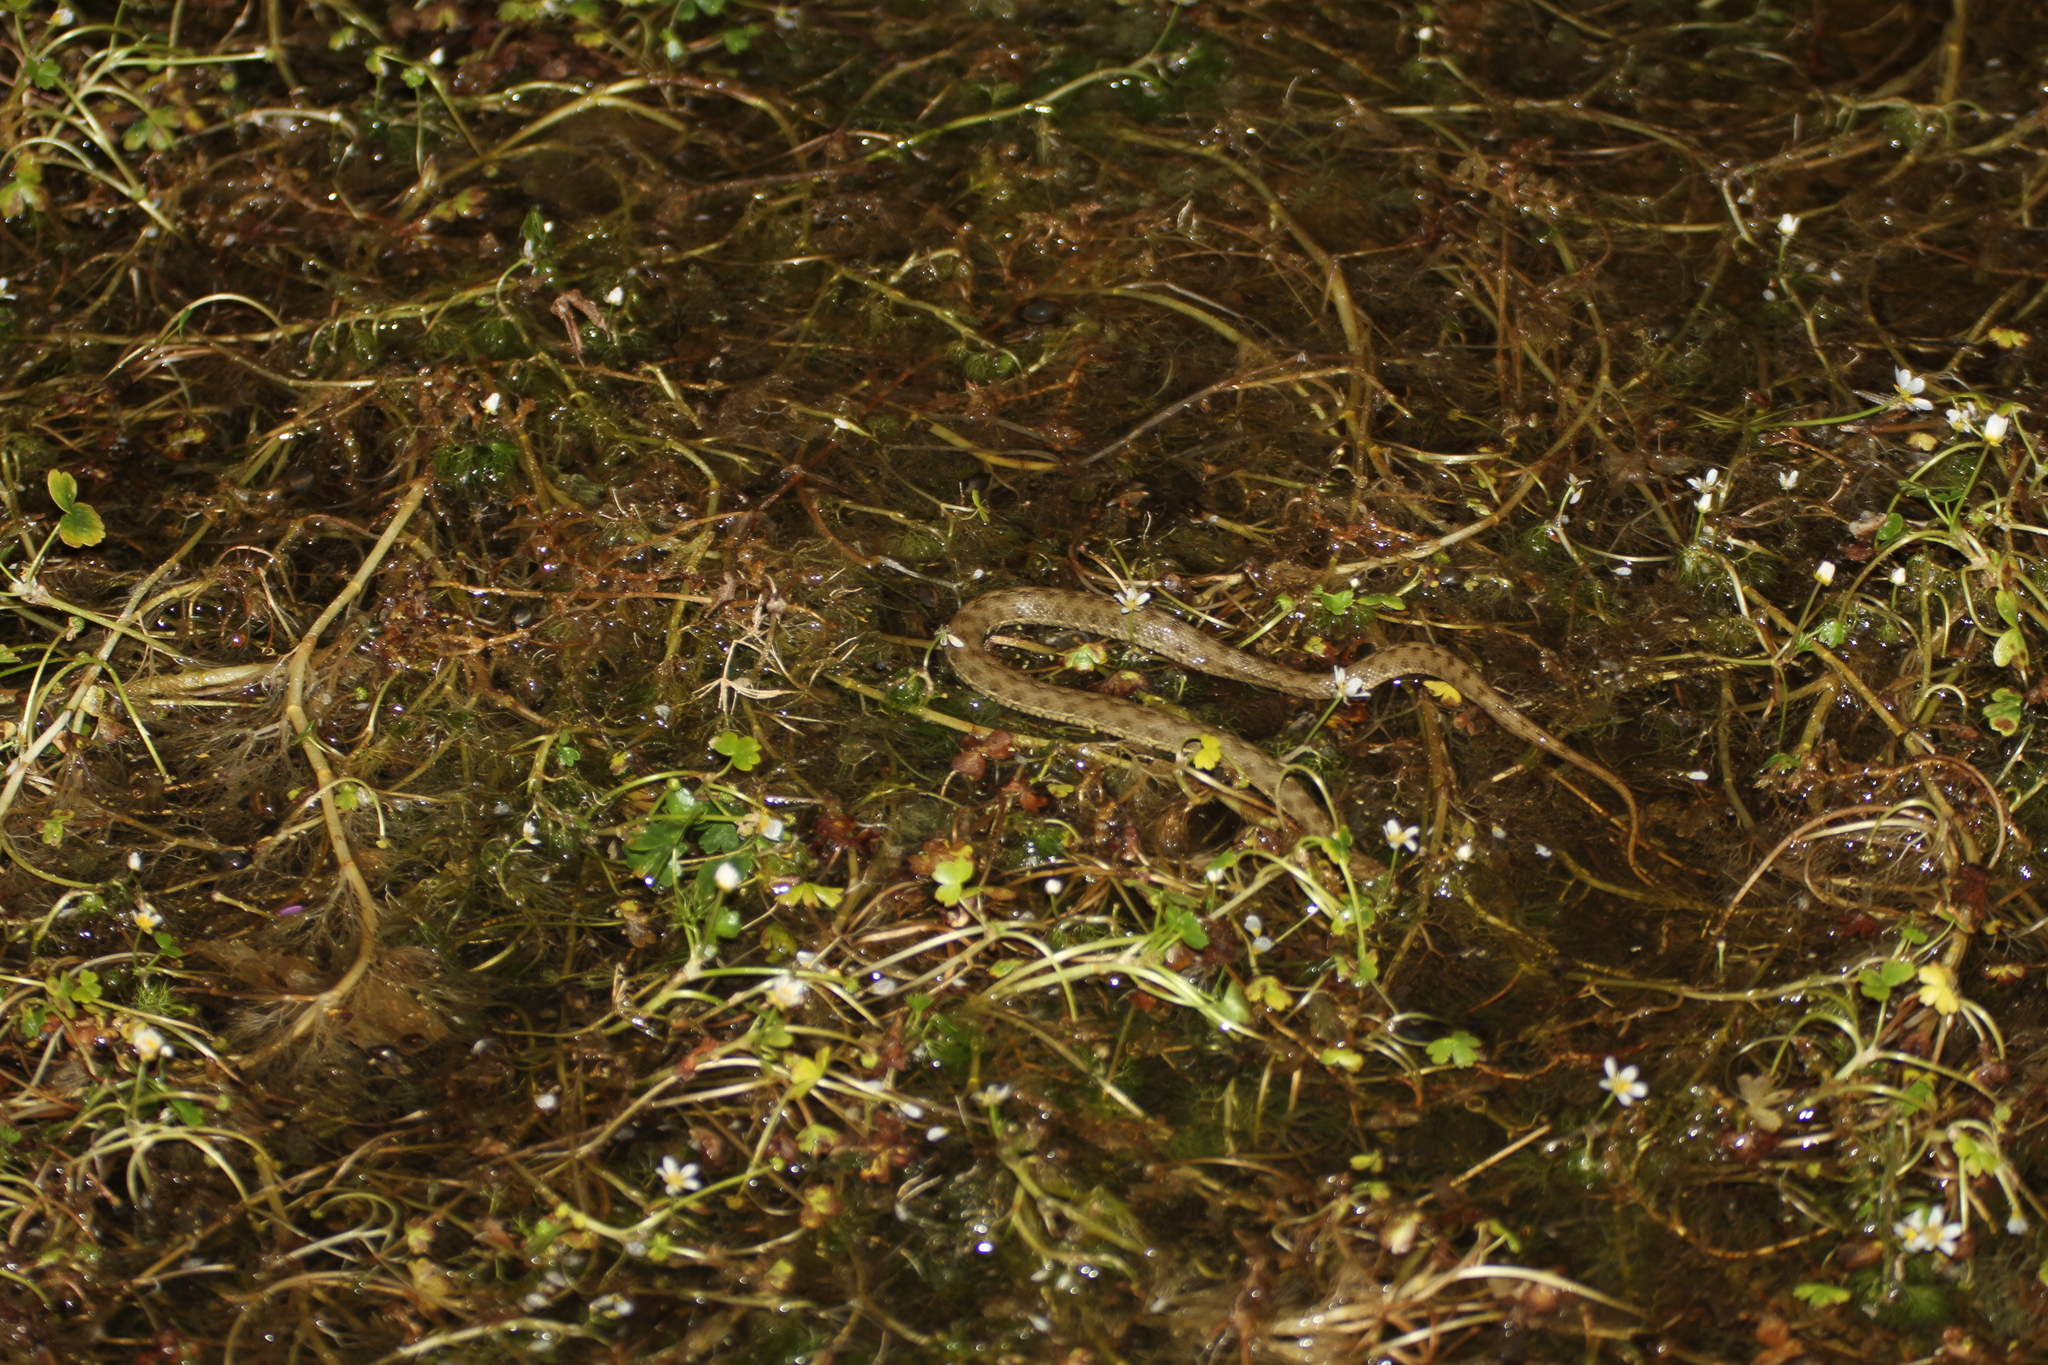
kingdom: Animalia
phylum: Chordata
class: Squamata
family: Colubridae
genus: Natrix
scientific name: Natrix maura
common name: Viperine water snake
